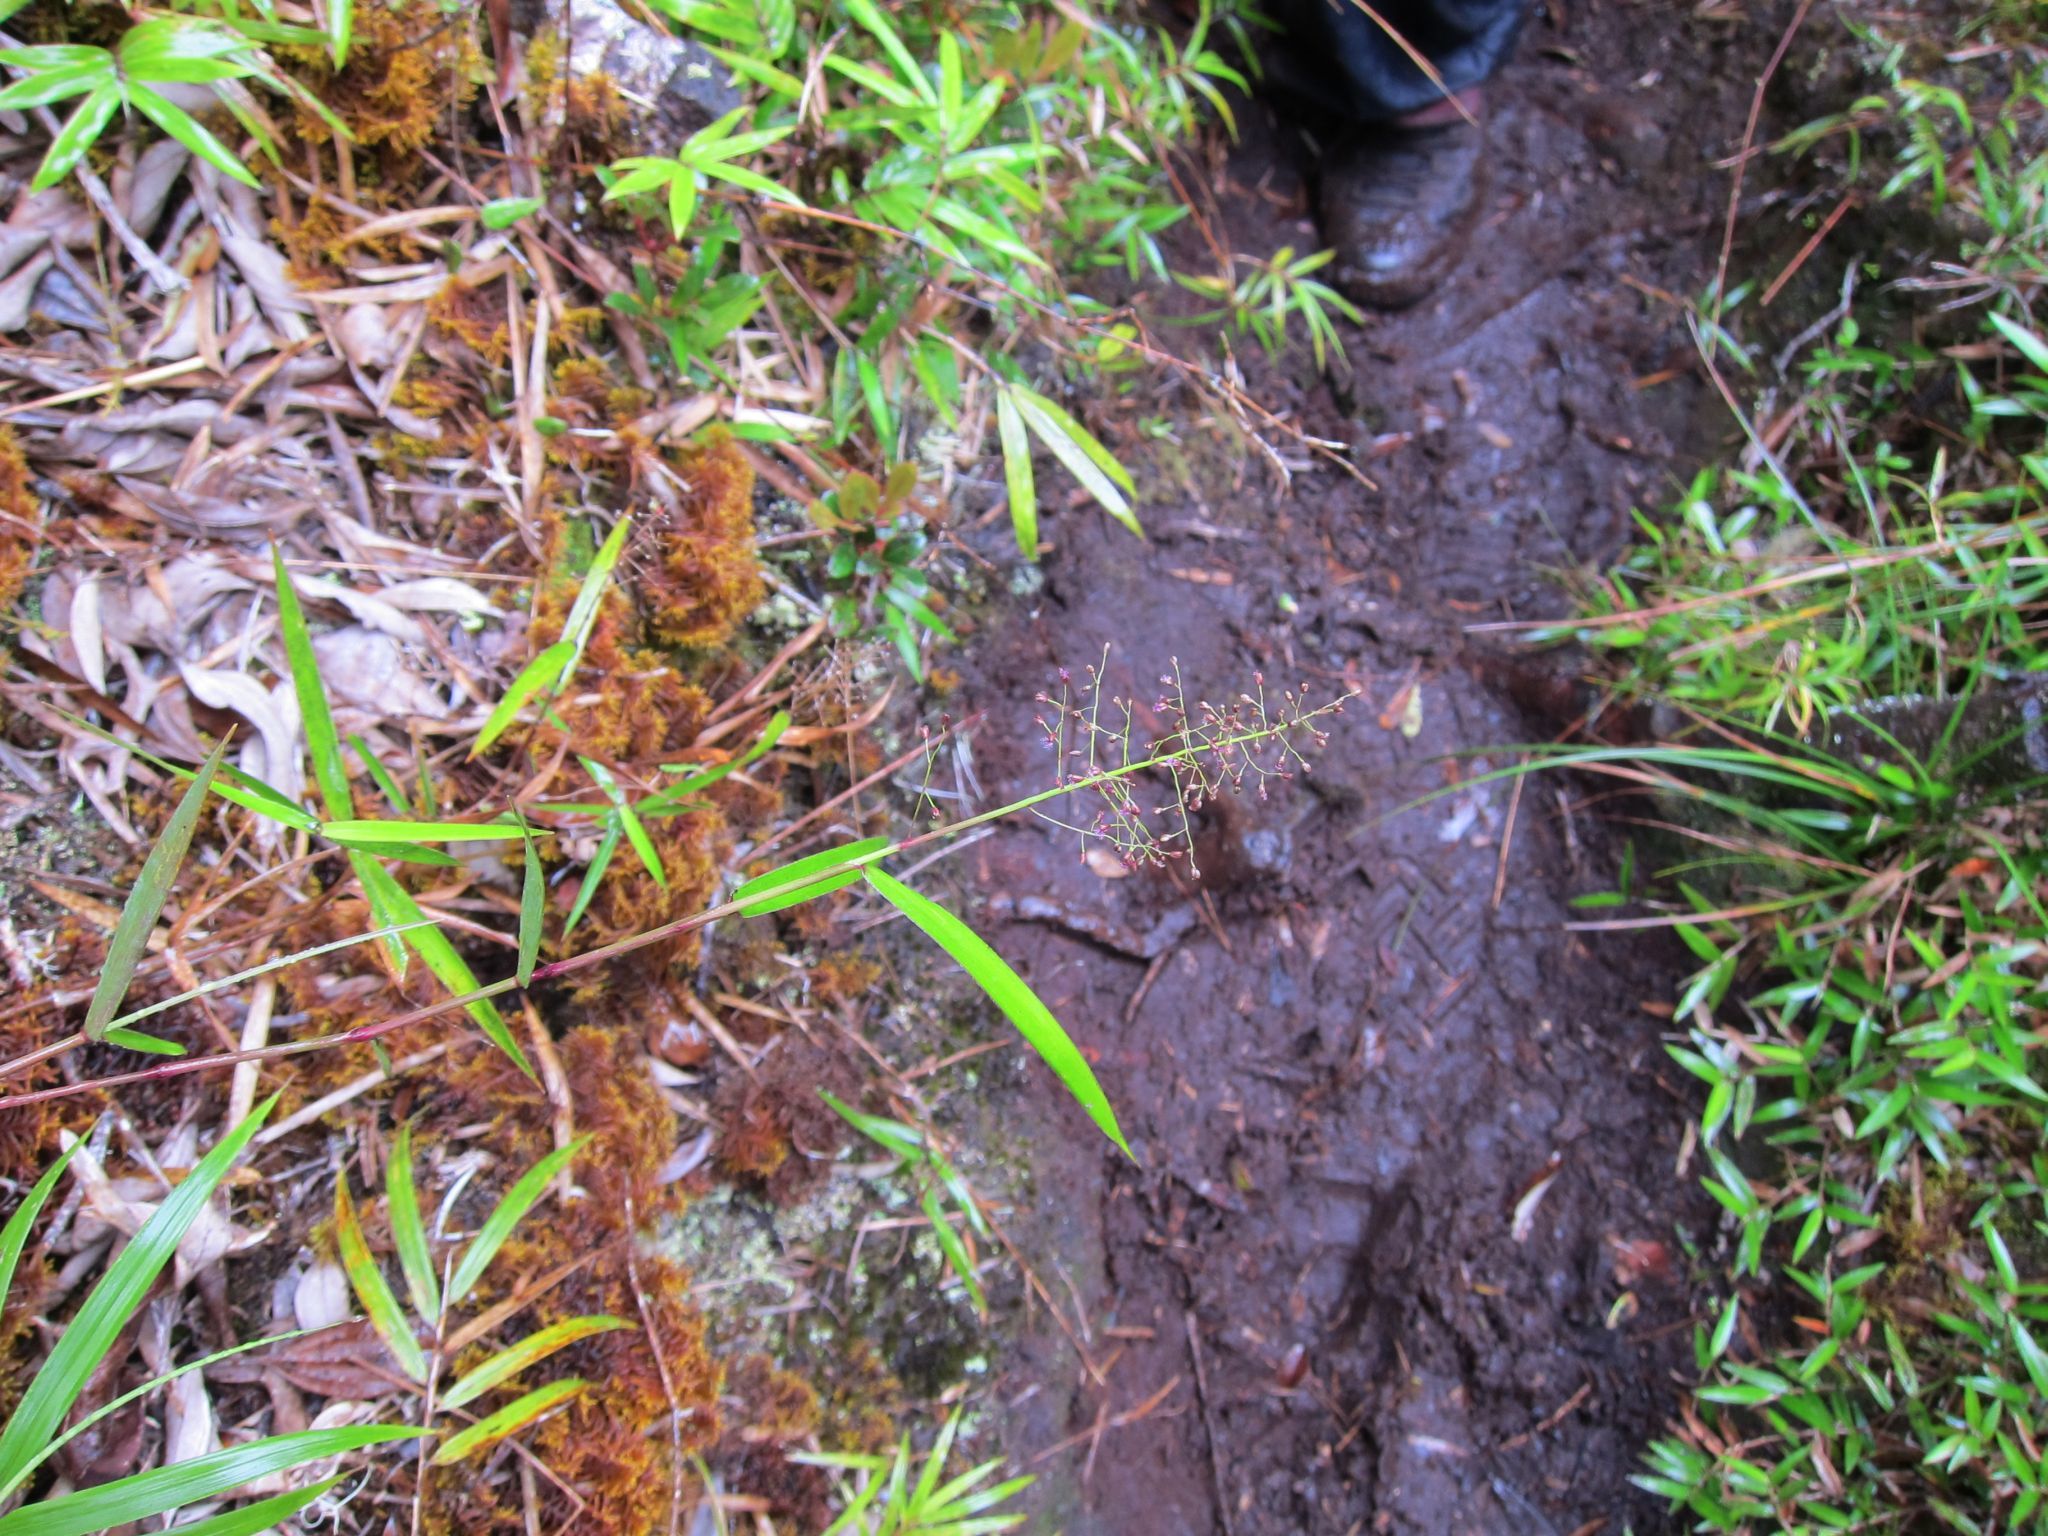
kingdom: Plantae
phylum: Tracheophyta
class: Liliopsida
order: Poales
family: Poaceae
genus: Isachne
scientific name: Isachne humbertiana
